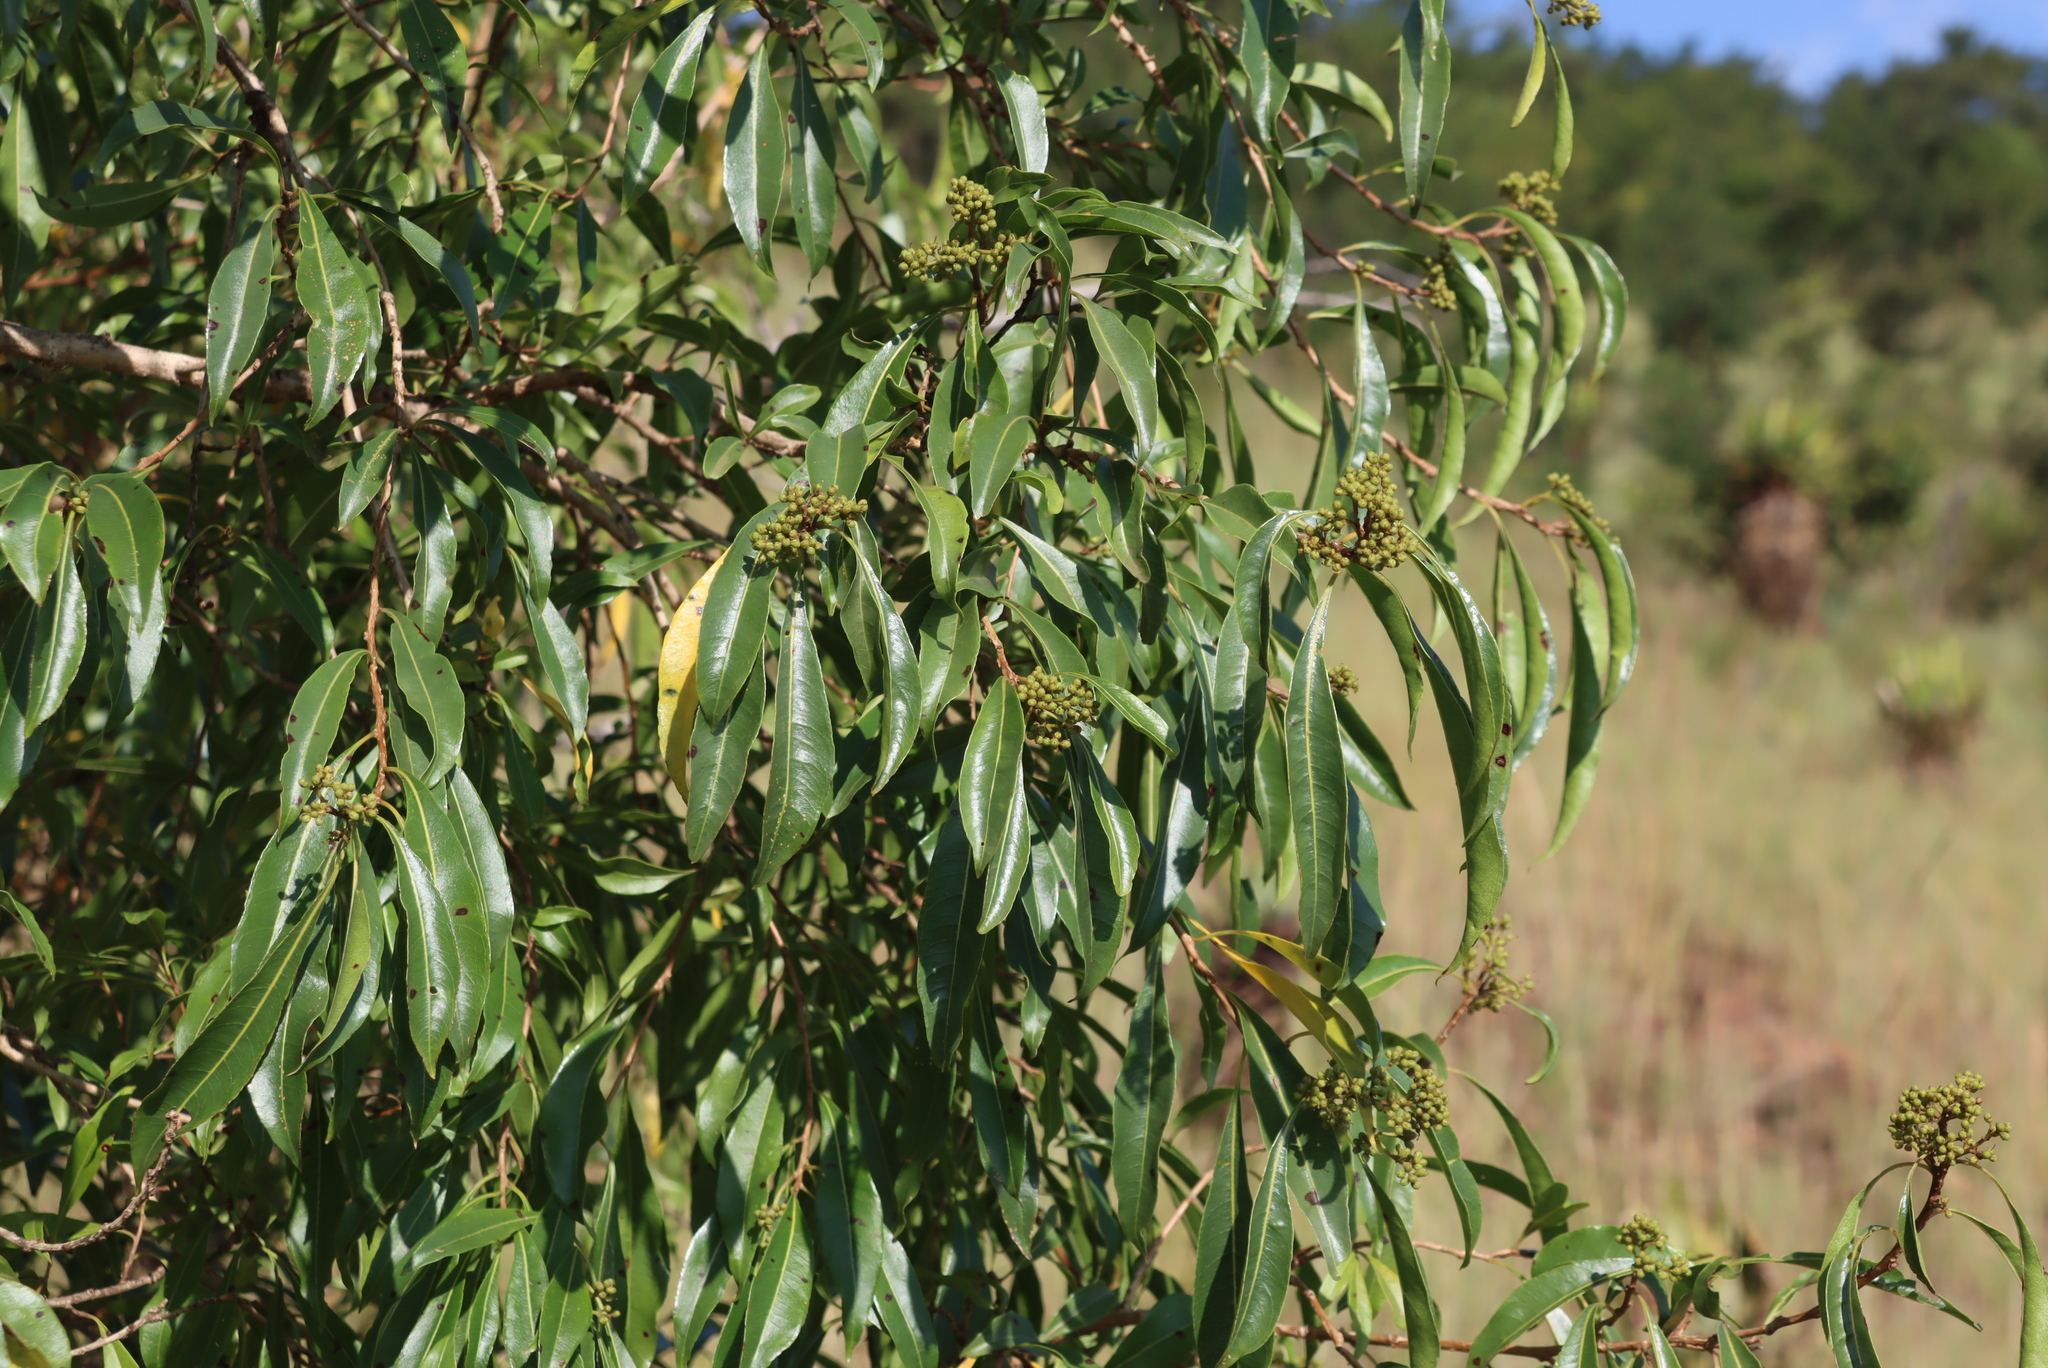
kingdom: Plantae
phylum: Tracheophyta
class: Magnoliopsida
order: Myrtales
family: Myrtaceae
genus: Heteropyxis
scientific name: Heteropyxis natalensis
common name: Lavender tree
